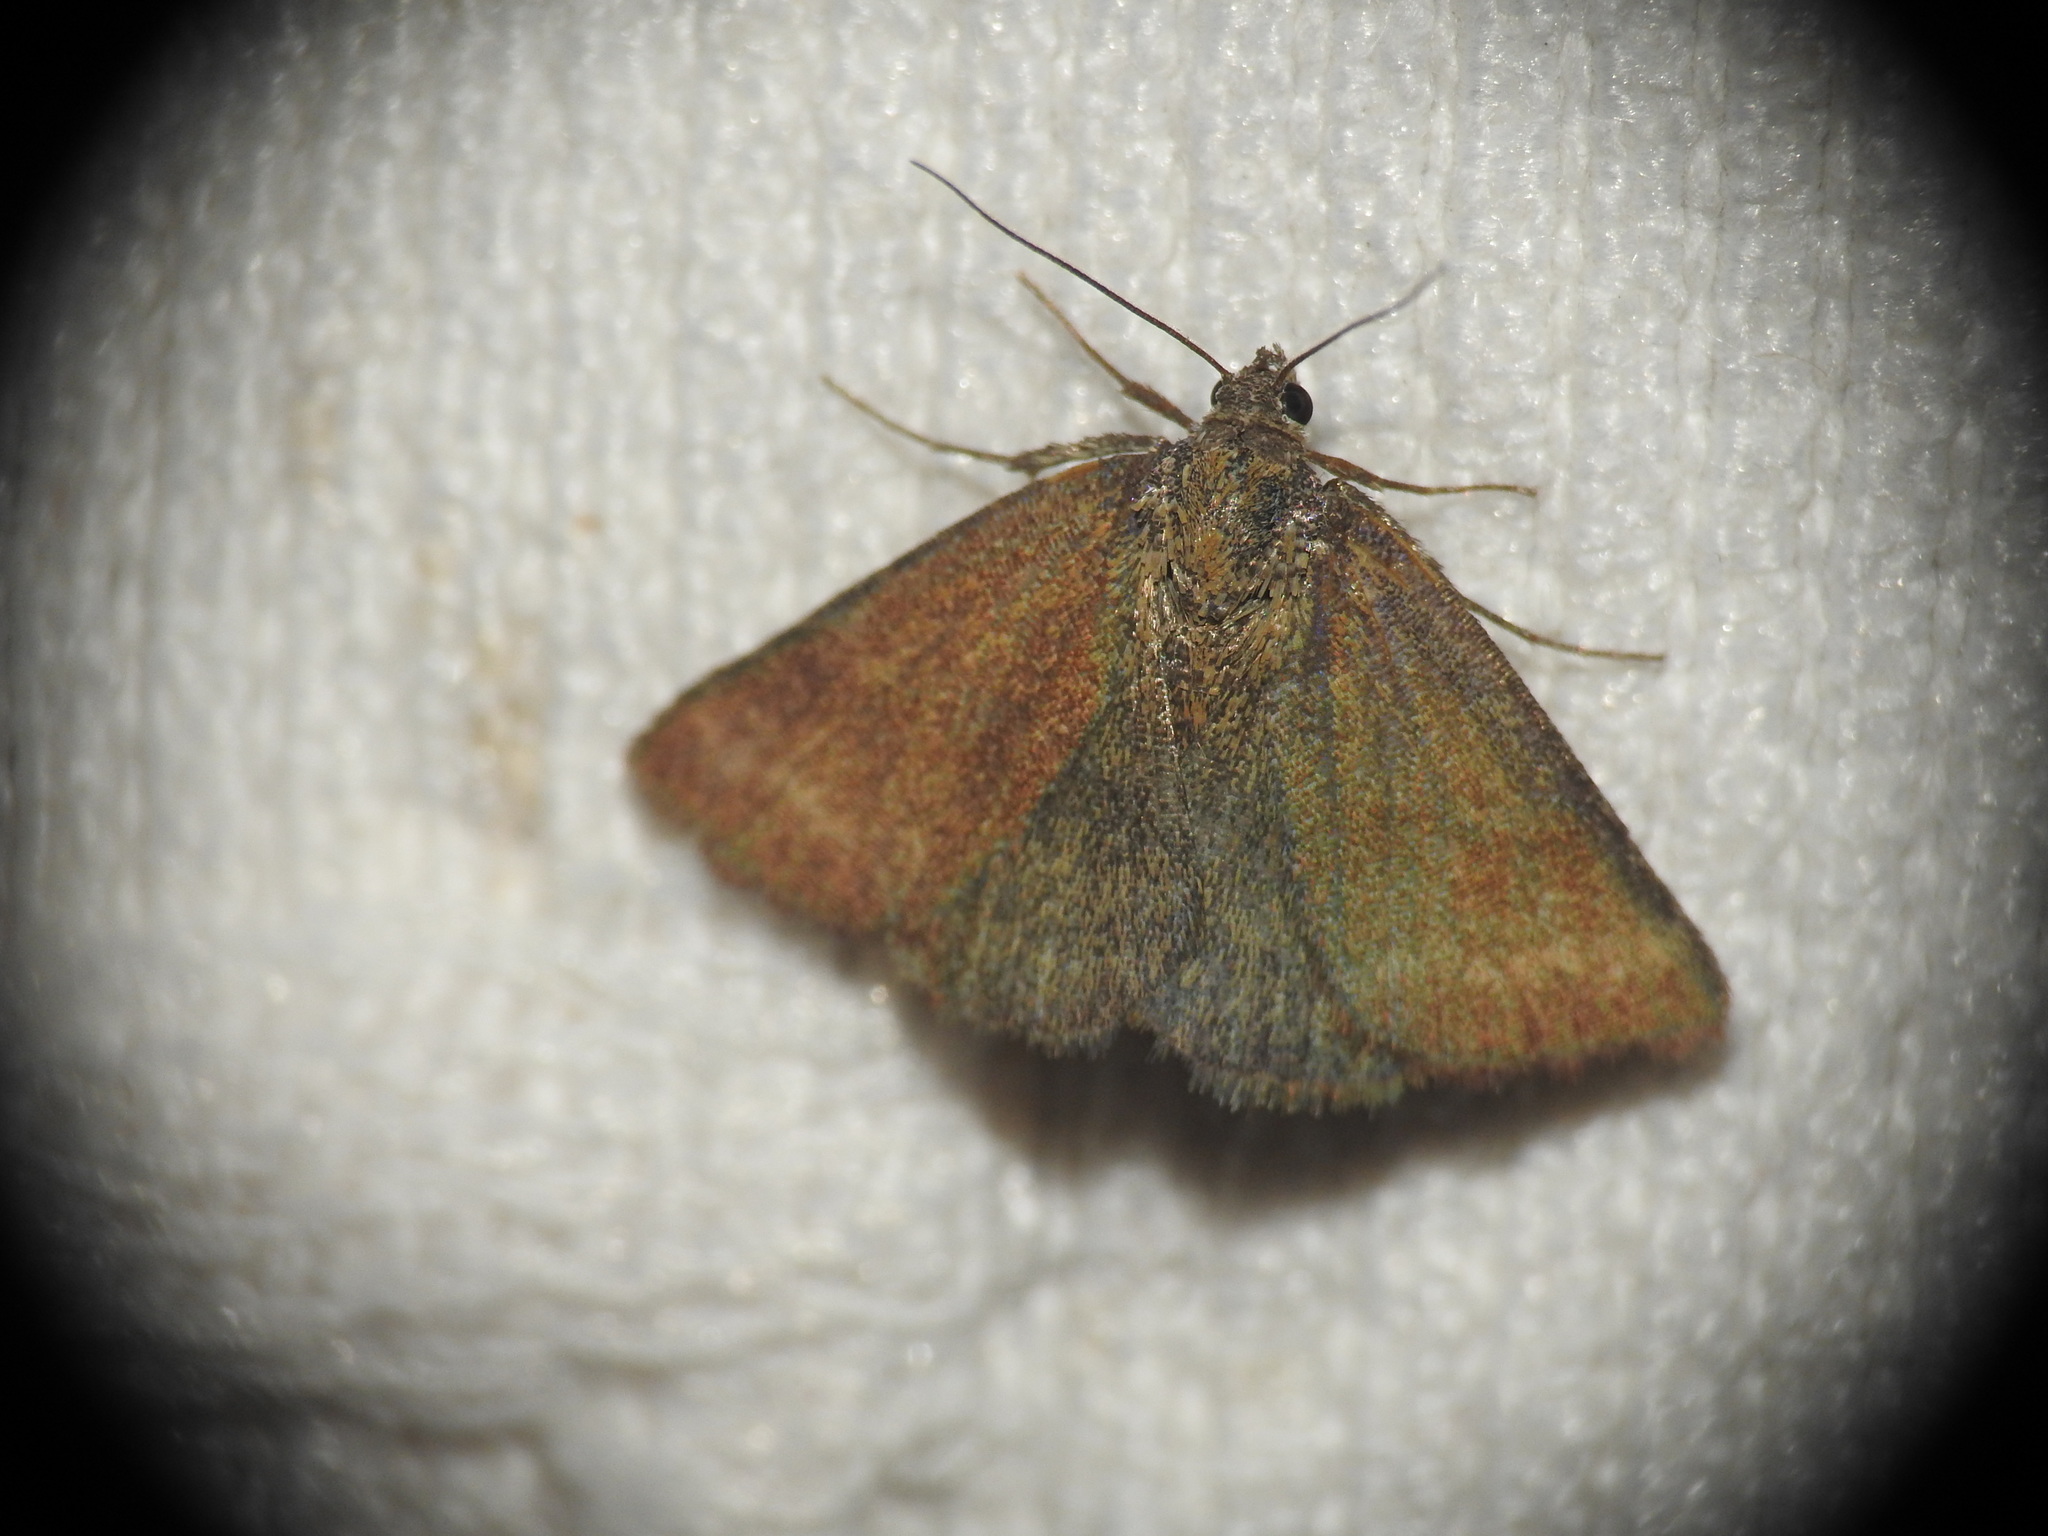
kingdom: Animalia
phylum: Arthropoda
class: Insecta
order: Lepidoptera
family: Erebidae
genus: Phytometra
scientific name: Phytometra viridaria
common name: Small purple-barred
